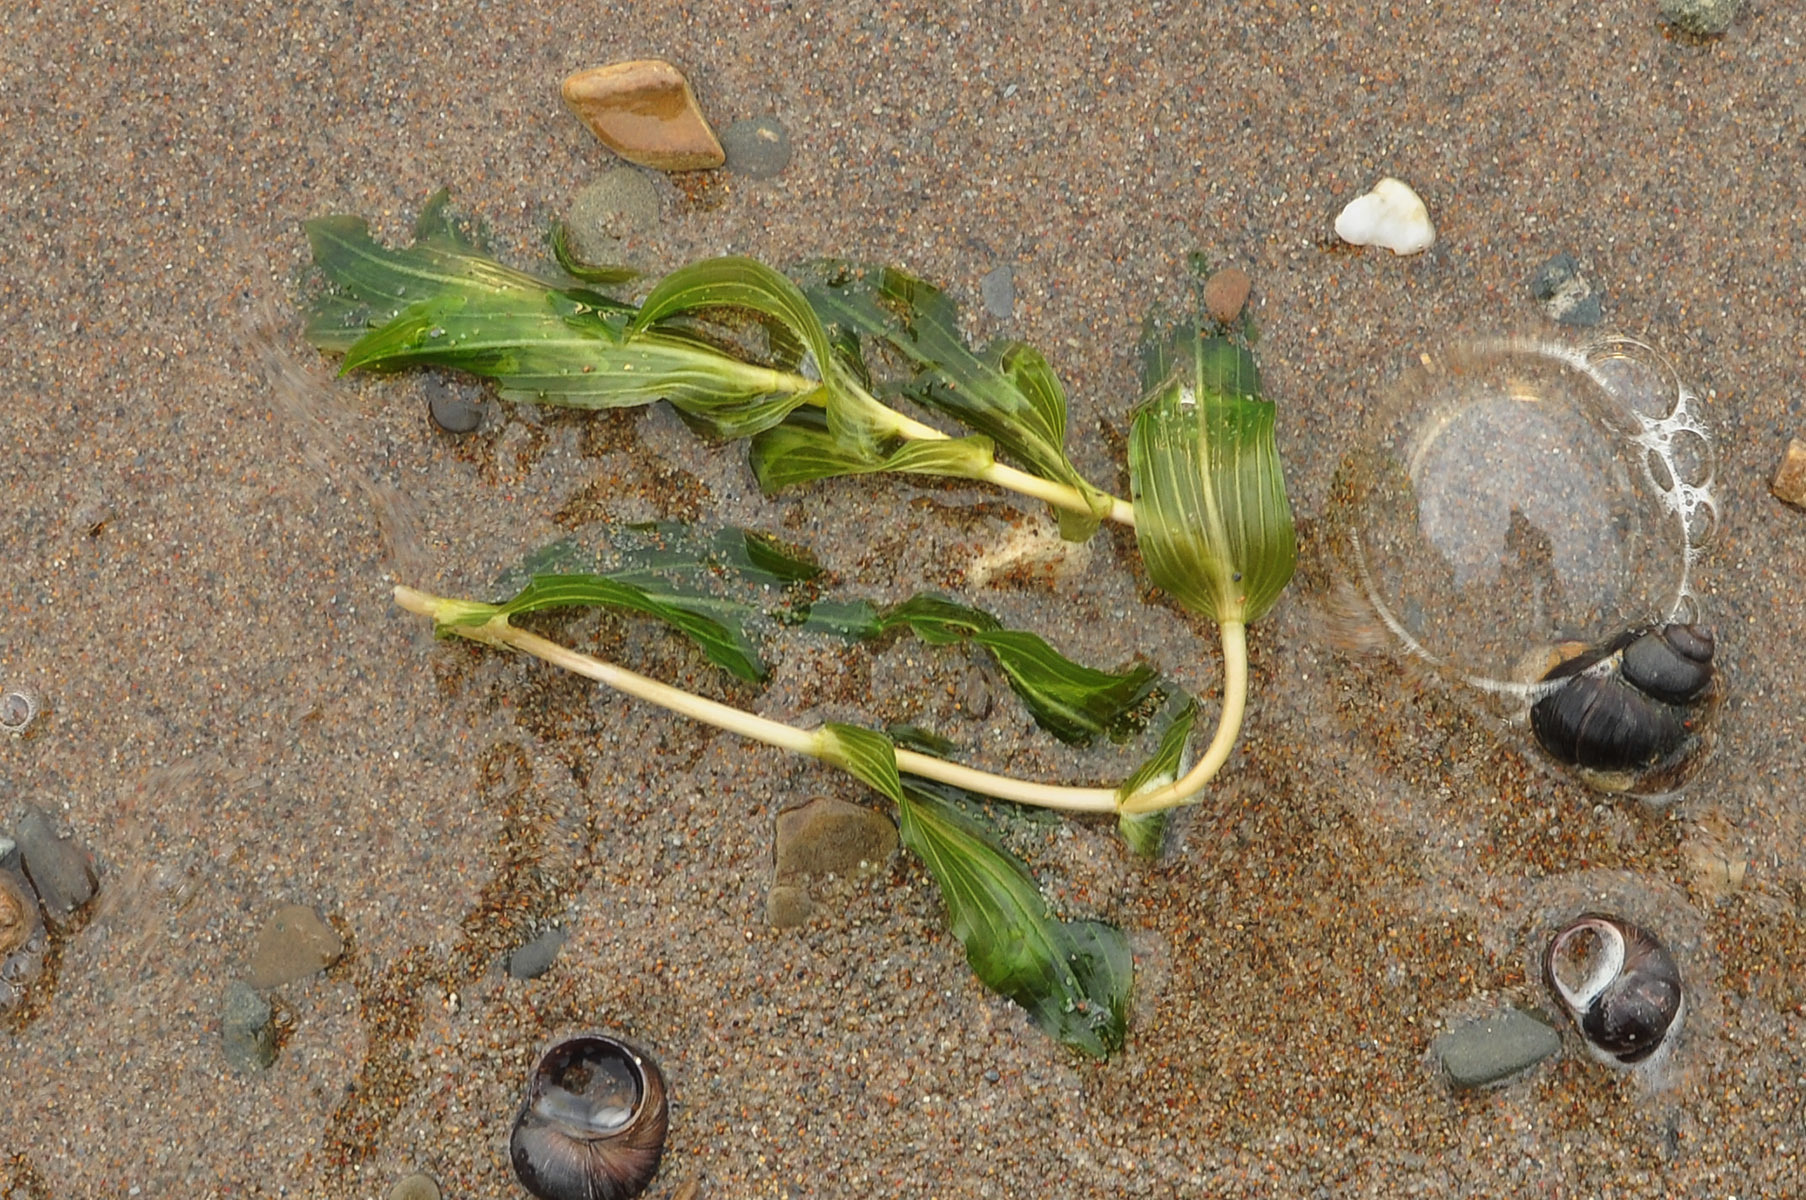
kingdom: Plantae
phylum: Tracheophyta
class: Liliopsida
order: Alismatales
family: Potamogetonaceae
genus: Potamogeton
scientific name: Potamogeton perfoliatus
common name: Perfoliate pondweed
